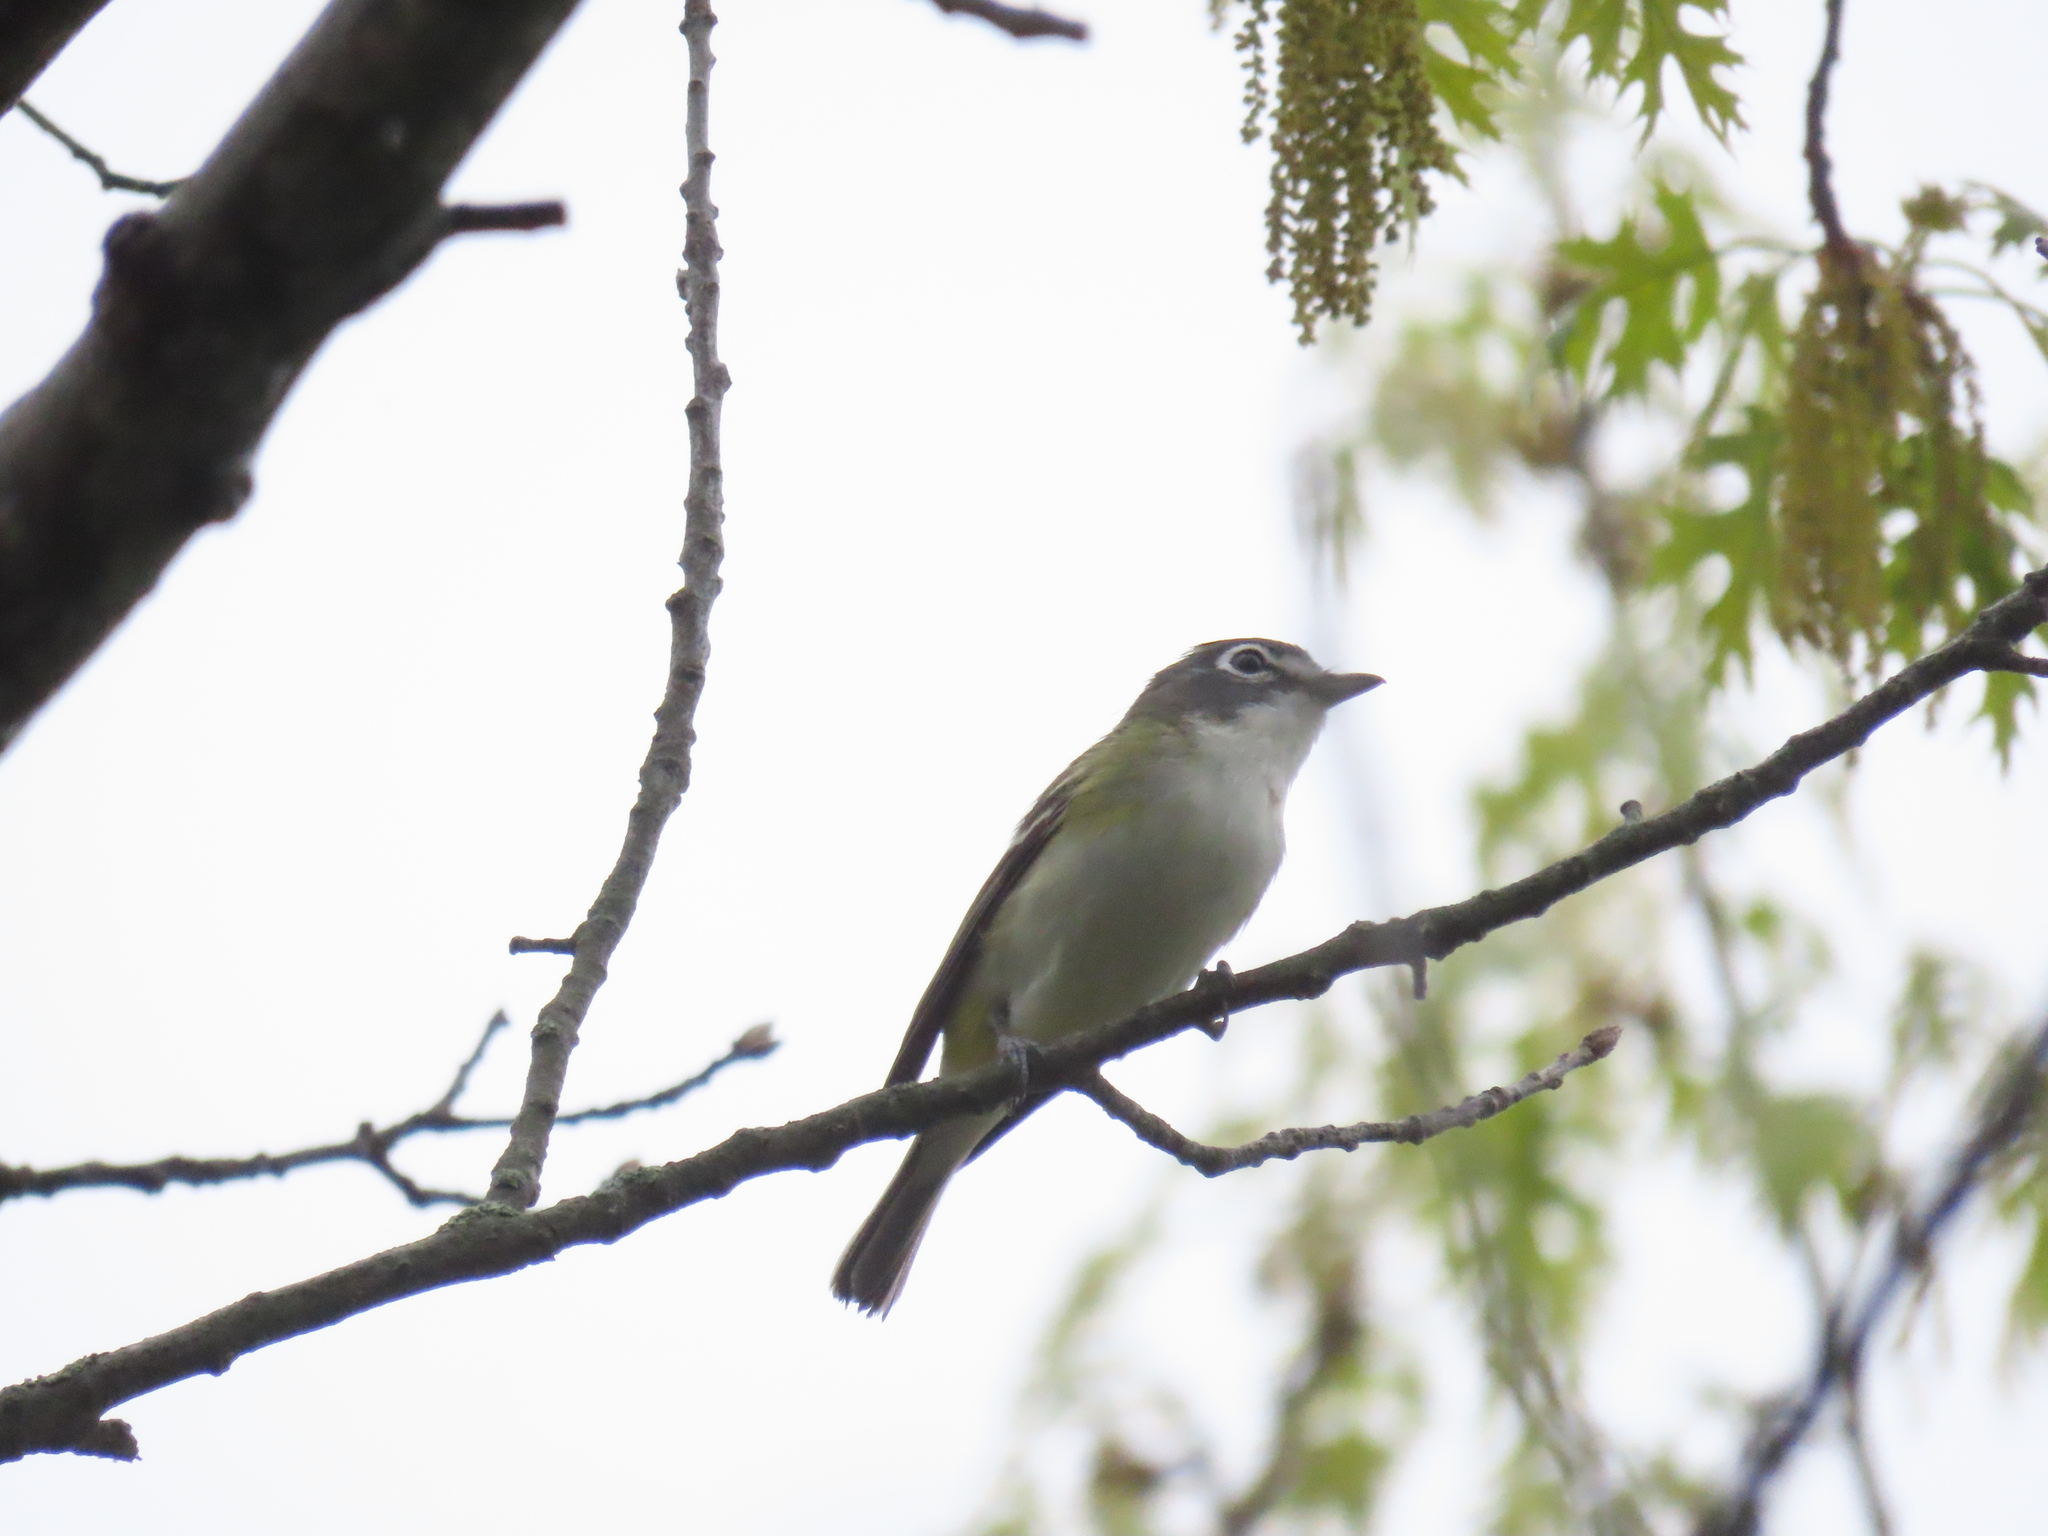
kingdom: Animalia
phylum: Chordata
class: Aves
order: Passeriformes
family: Vireonidae
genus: Vireo
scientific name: Vireo solitarius
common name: Blue-headed vireo
